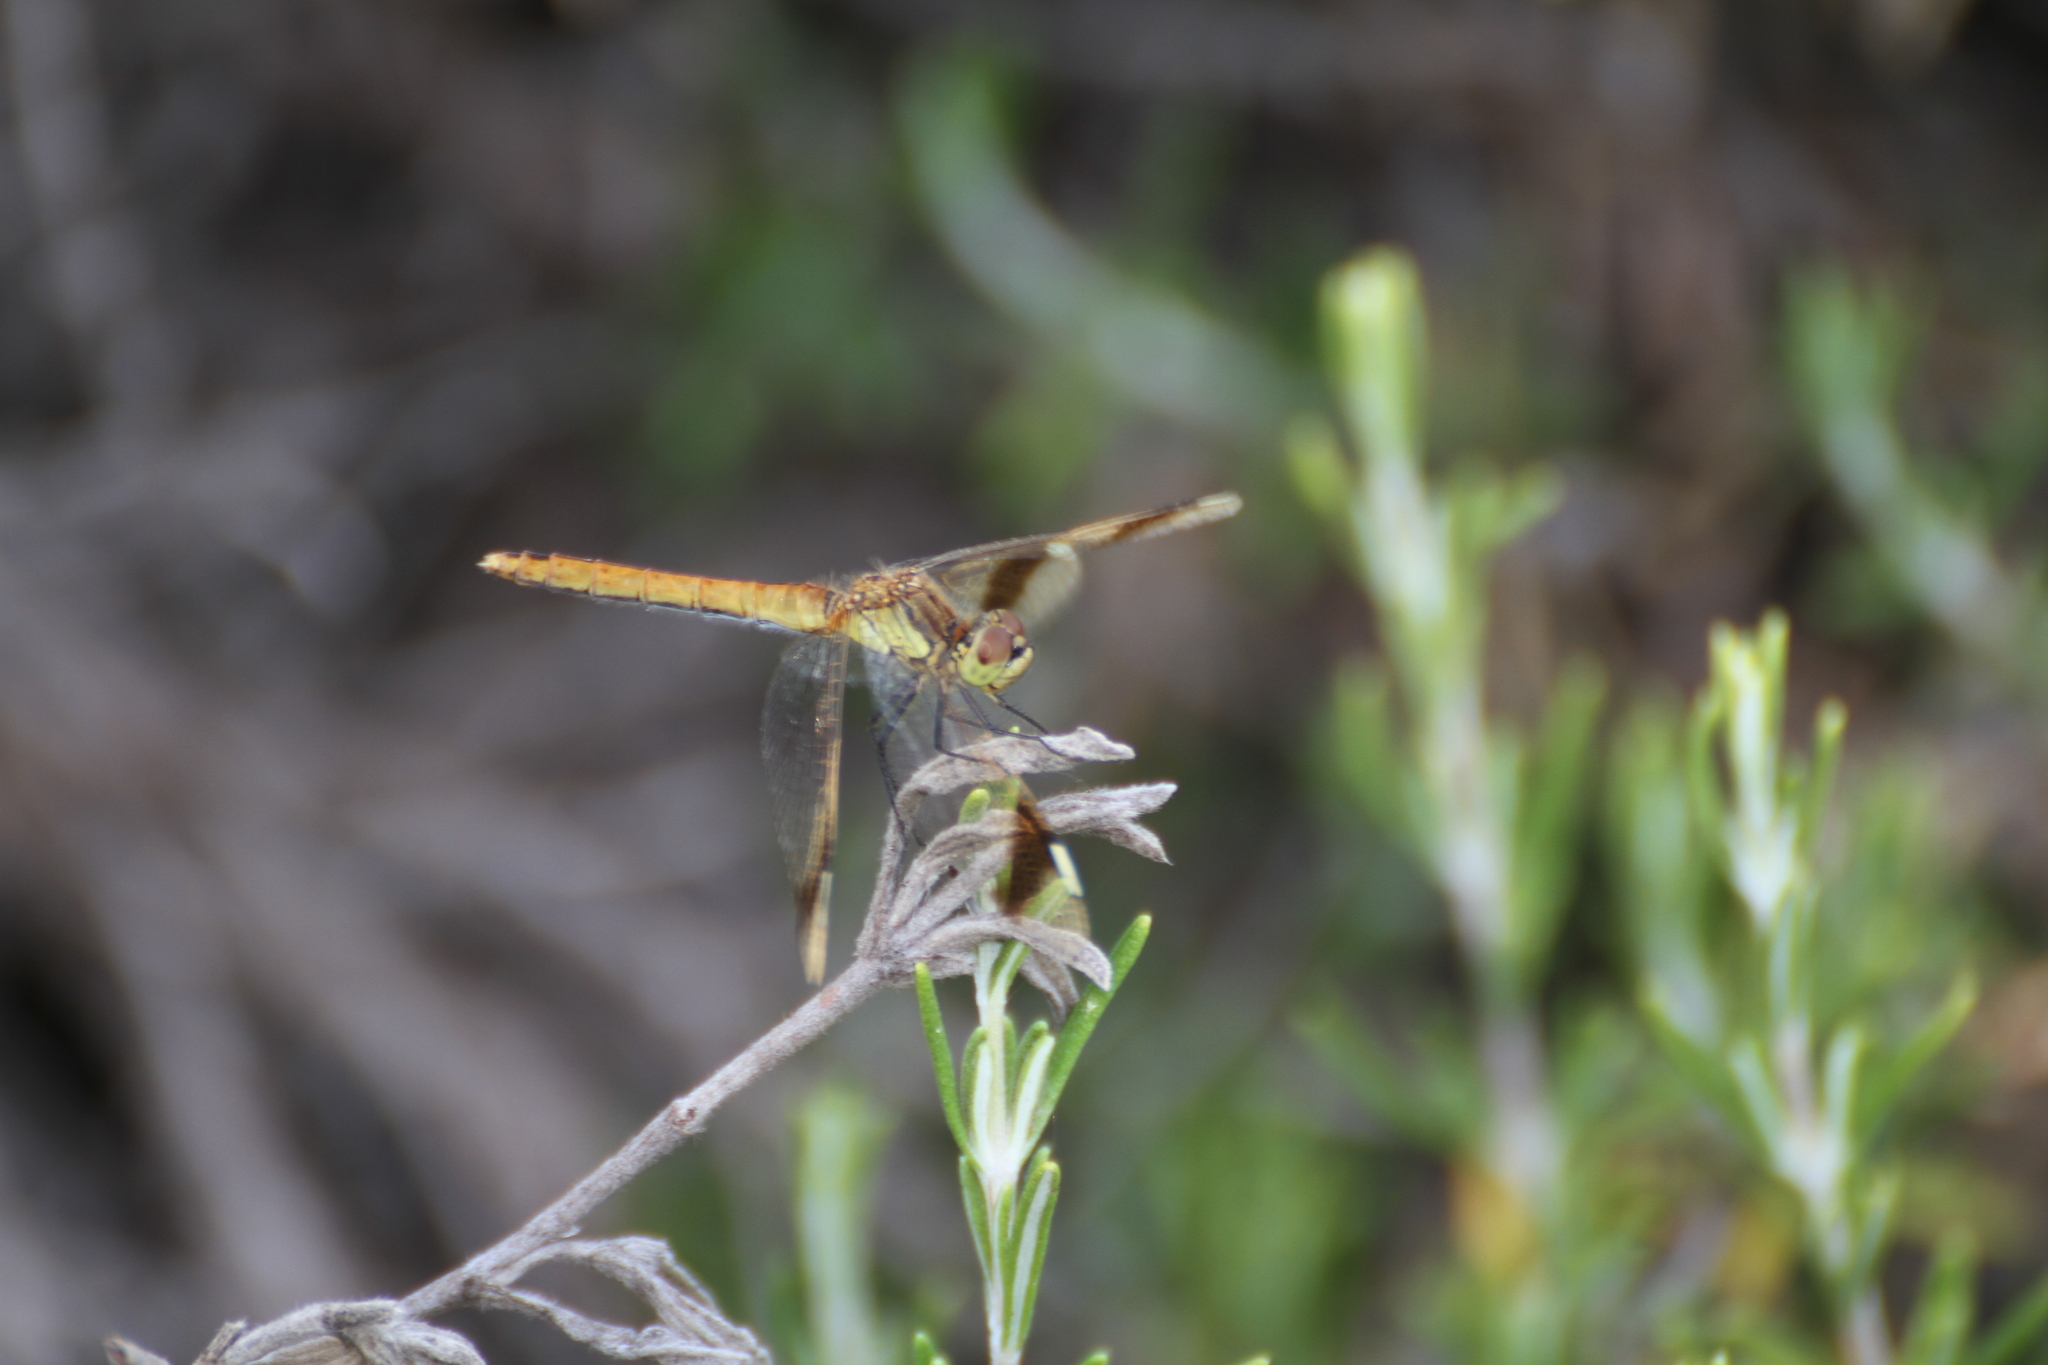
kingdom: Animalia
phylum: Arthropoda
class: Insecta
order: Odonata
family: Libellulidae
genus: Sympetrum
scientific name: Sympetrum pedemontanum
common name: Banded darter
